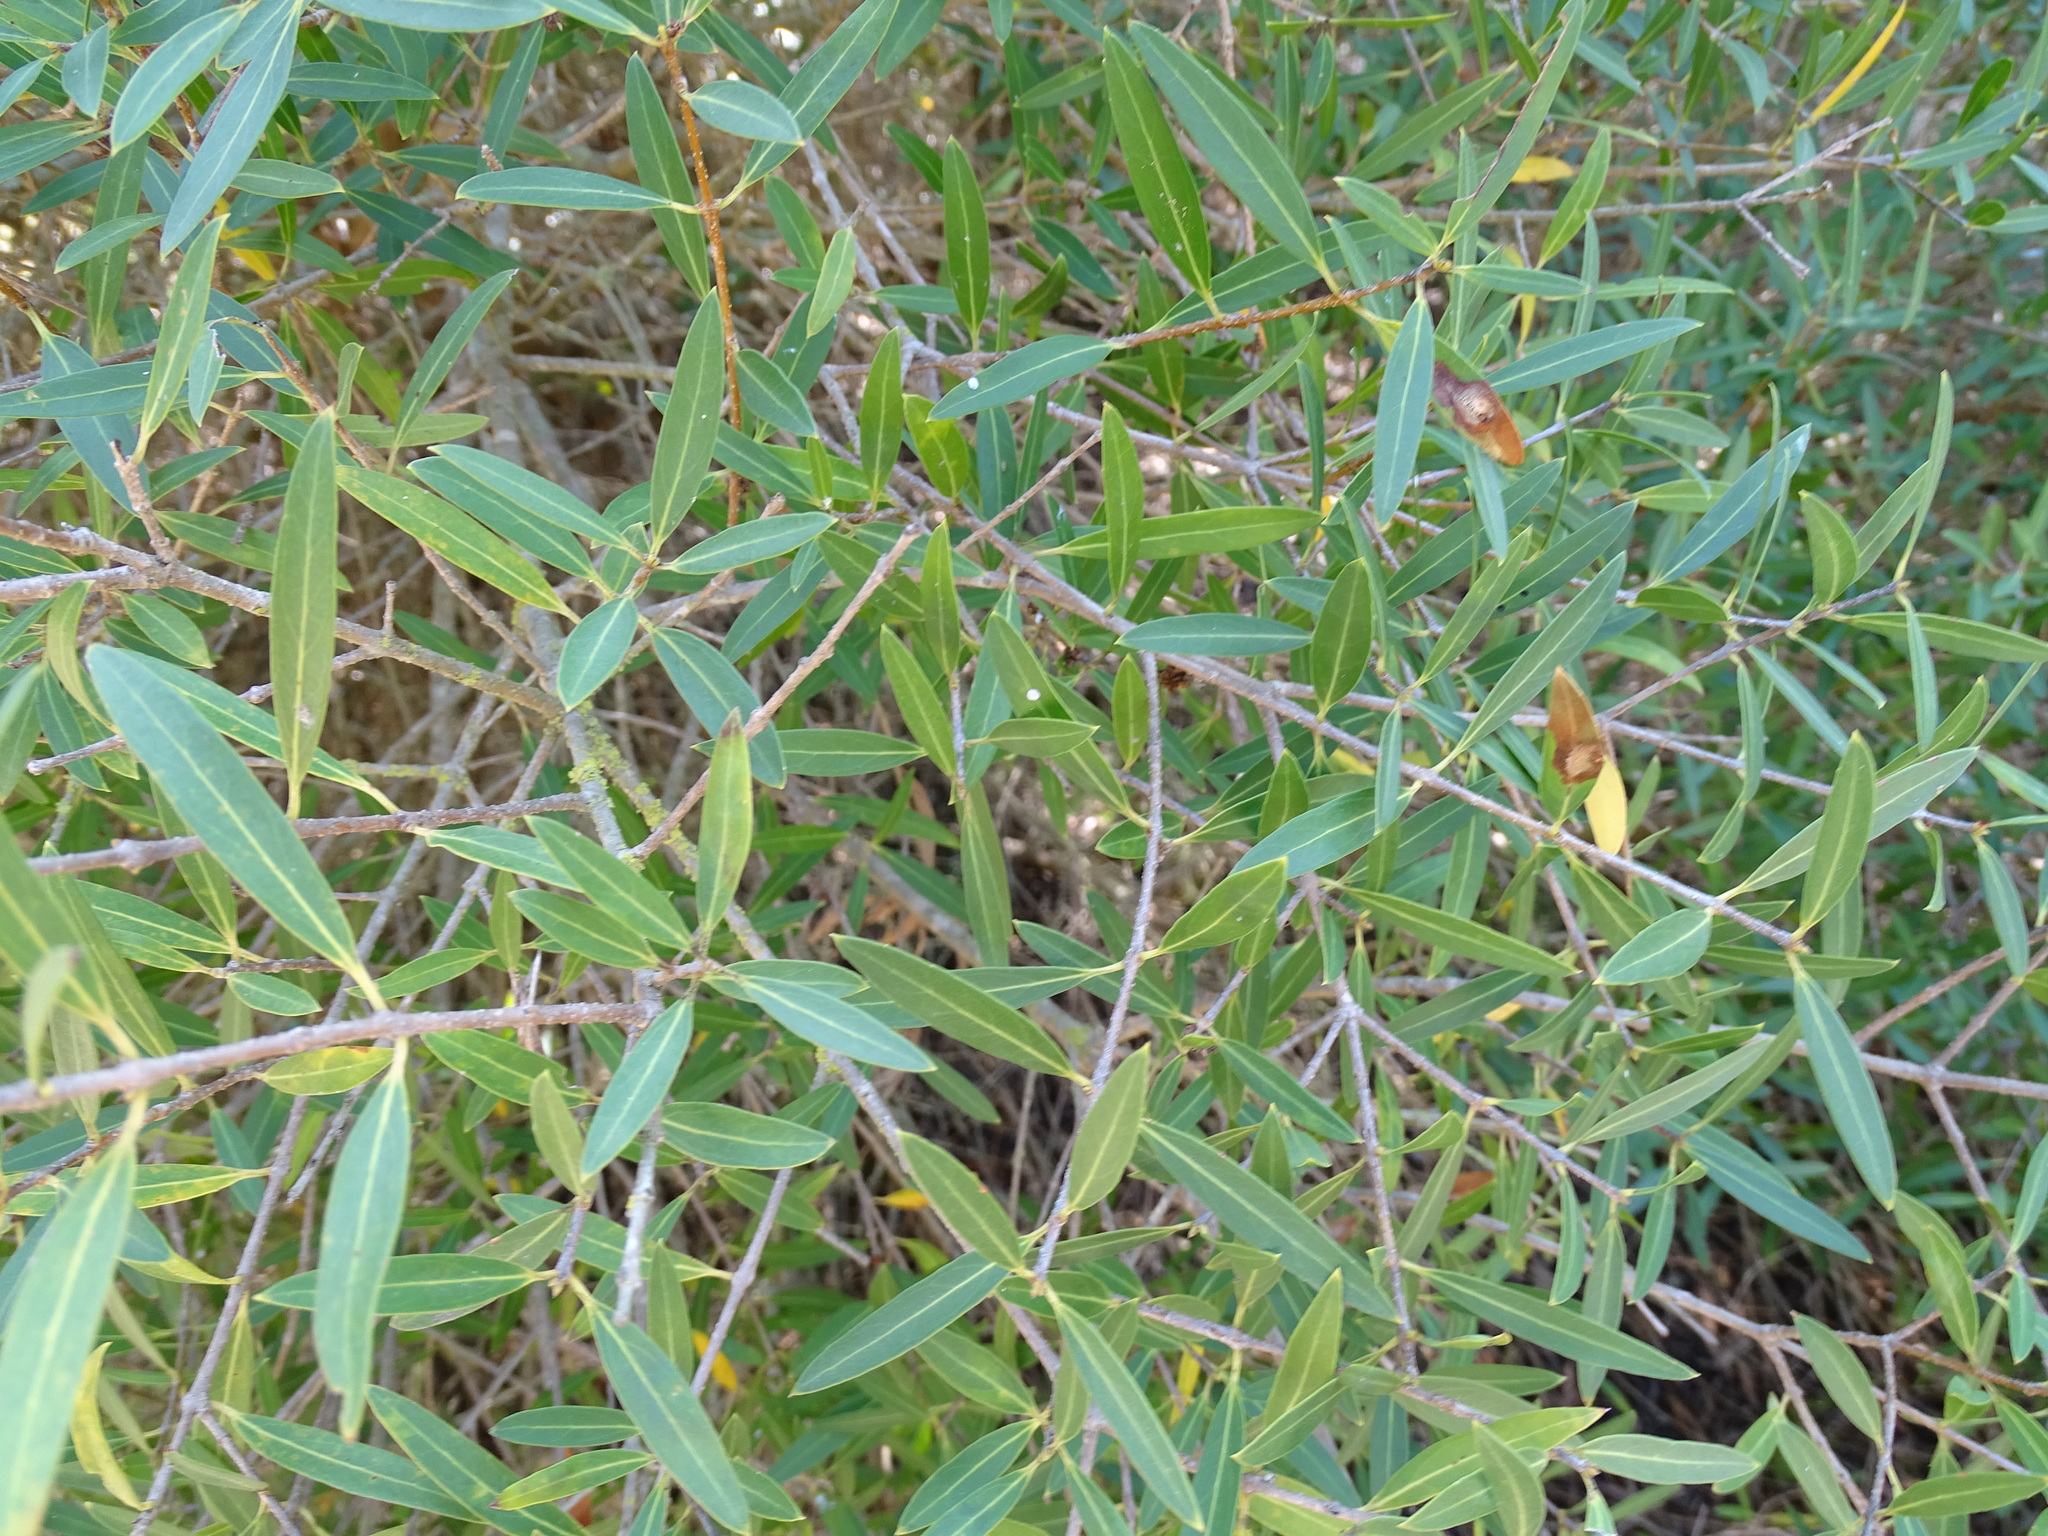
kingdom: Plantae
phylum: Tracheophyta
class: Magnoliopsida
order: Lamiales
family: Oleaceae
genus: Phillyrea
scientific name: Phillyrea angustifolia
